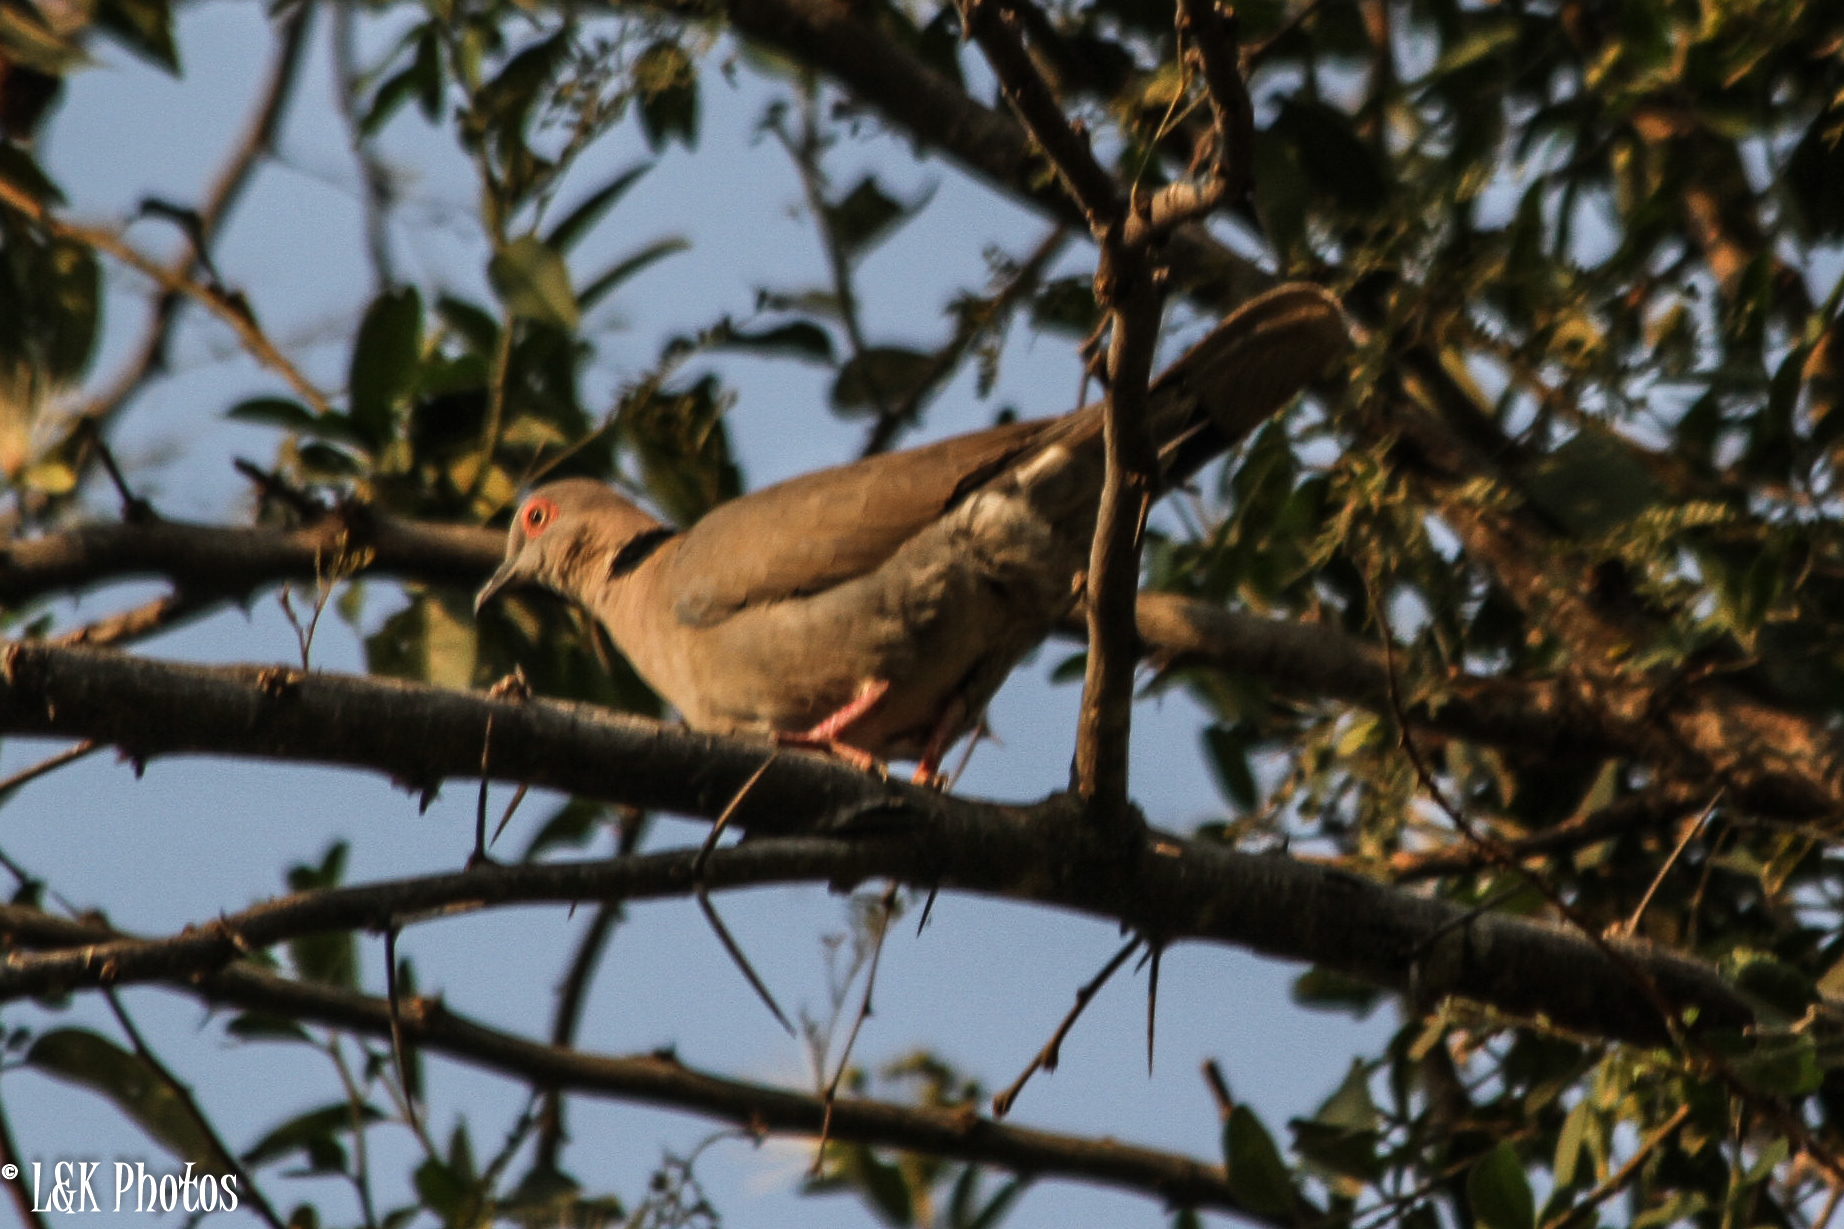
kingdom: Animalia
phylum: Chordata
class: Aves
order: Columbiformes
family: Columbidae
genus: Streptopelia
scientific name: Streptopelia decipiens
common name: Mourning collared dove
